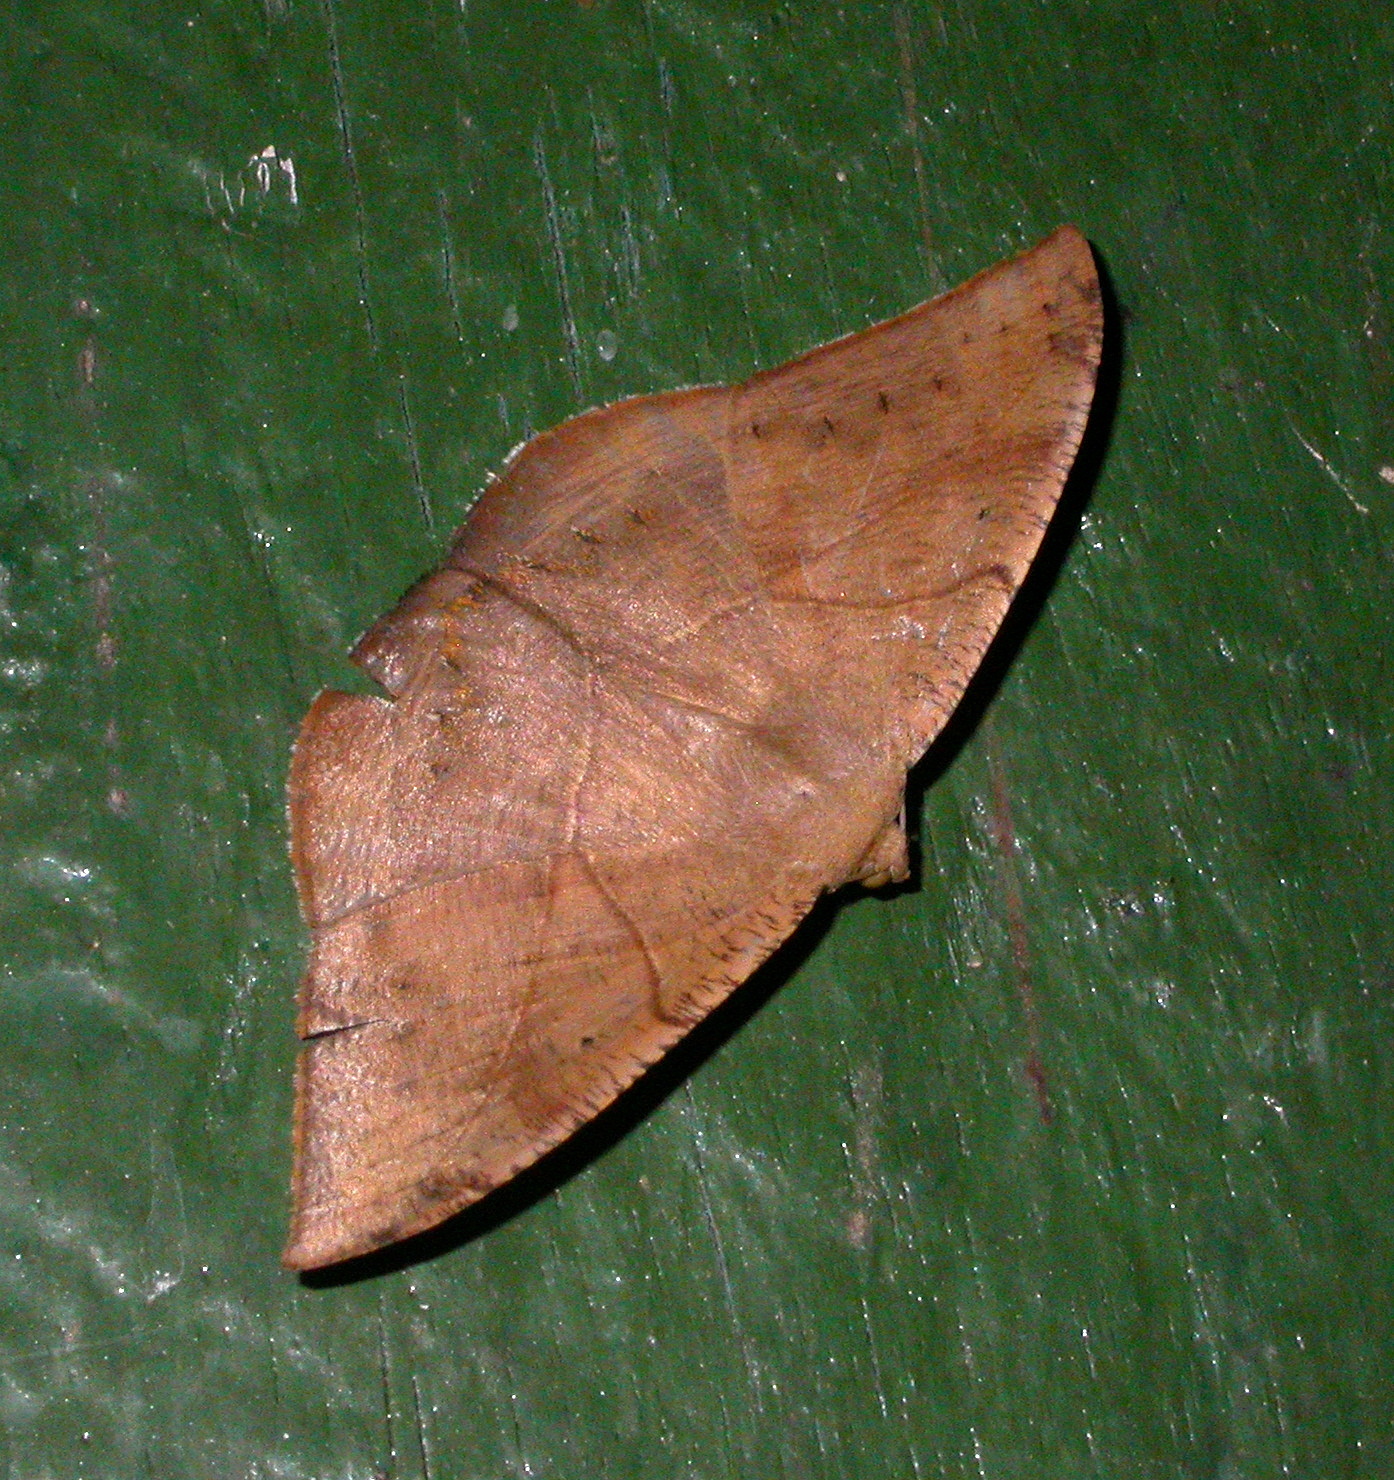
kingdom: Animalia
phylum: Arthropoda
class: Insecta
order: Lepidoptera
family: Geometridae
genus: Oxydia
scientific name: Oxydia trychiata
